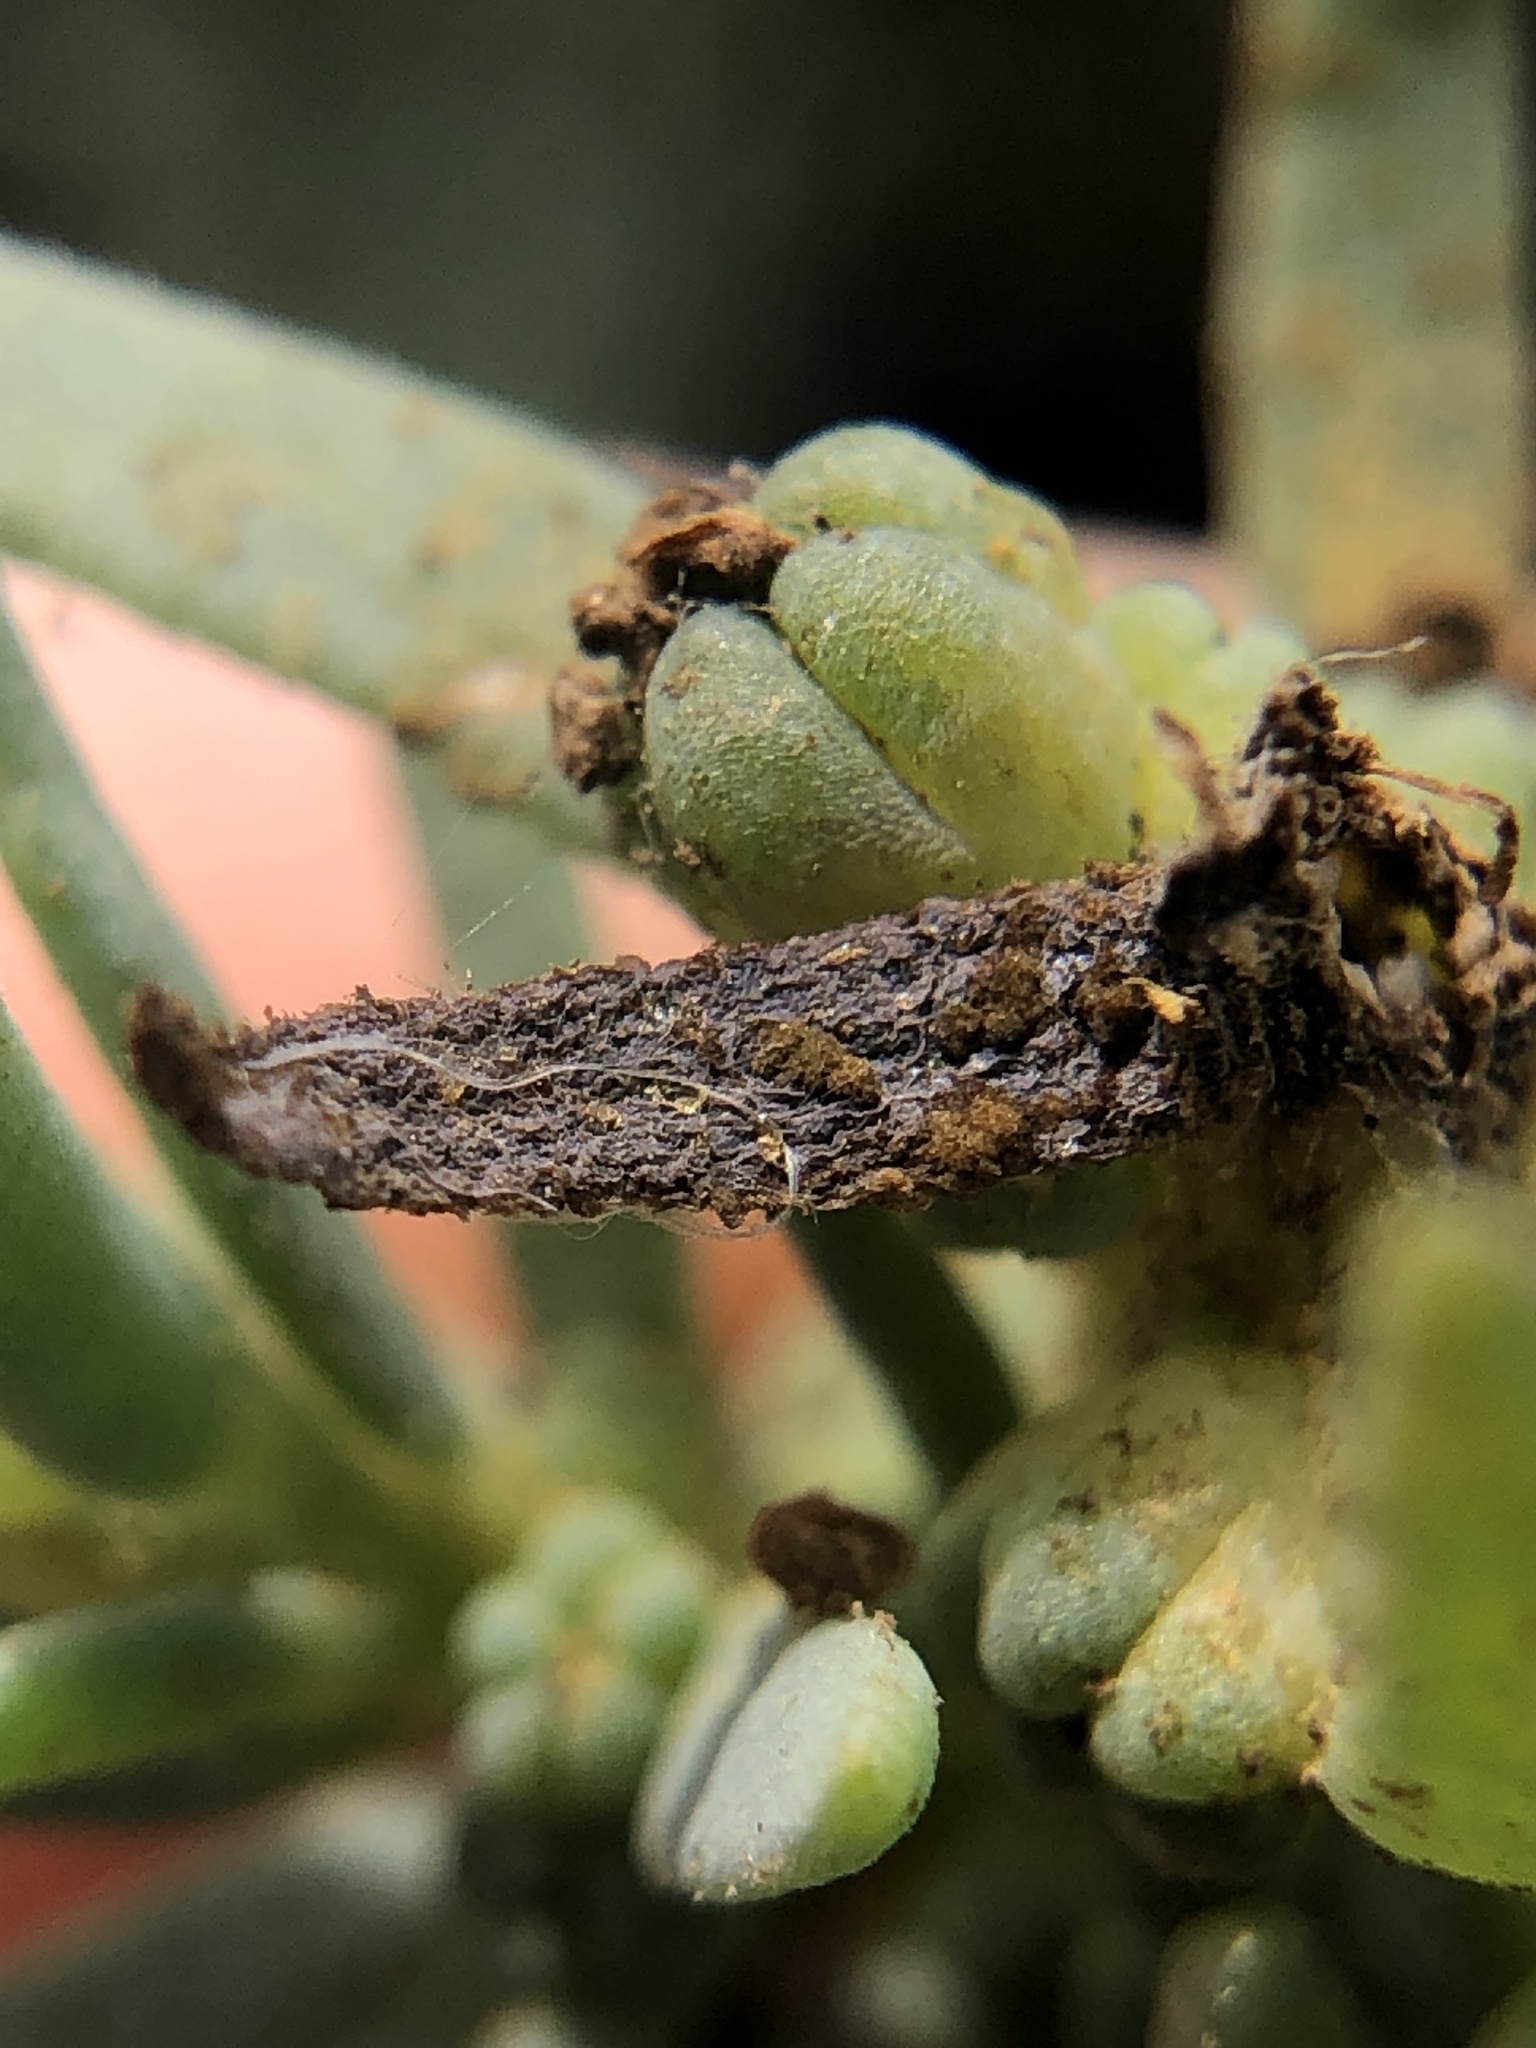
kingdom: Fungi
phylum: Basidiomycota
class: Pucciniomycetes
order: Pucciniales
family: Pucciniaceae
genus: Uromyces
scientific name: Uromyces rebeccae
